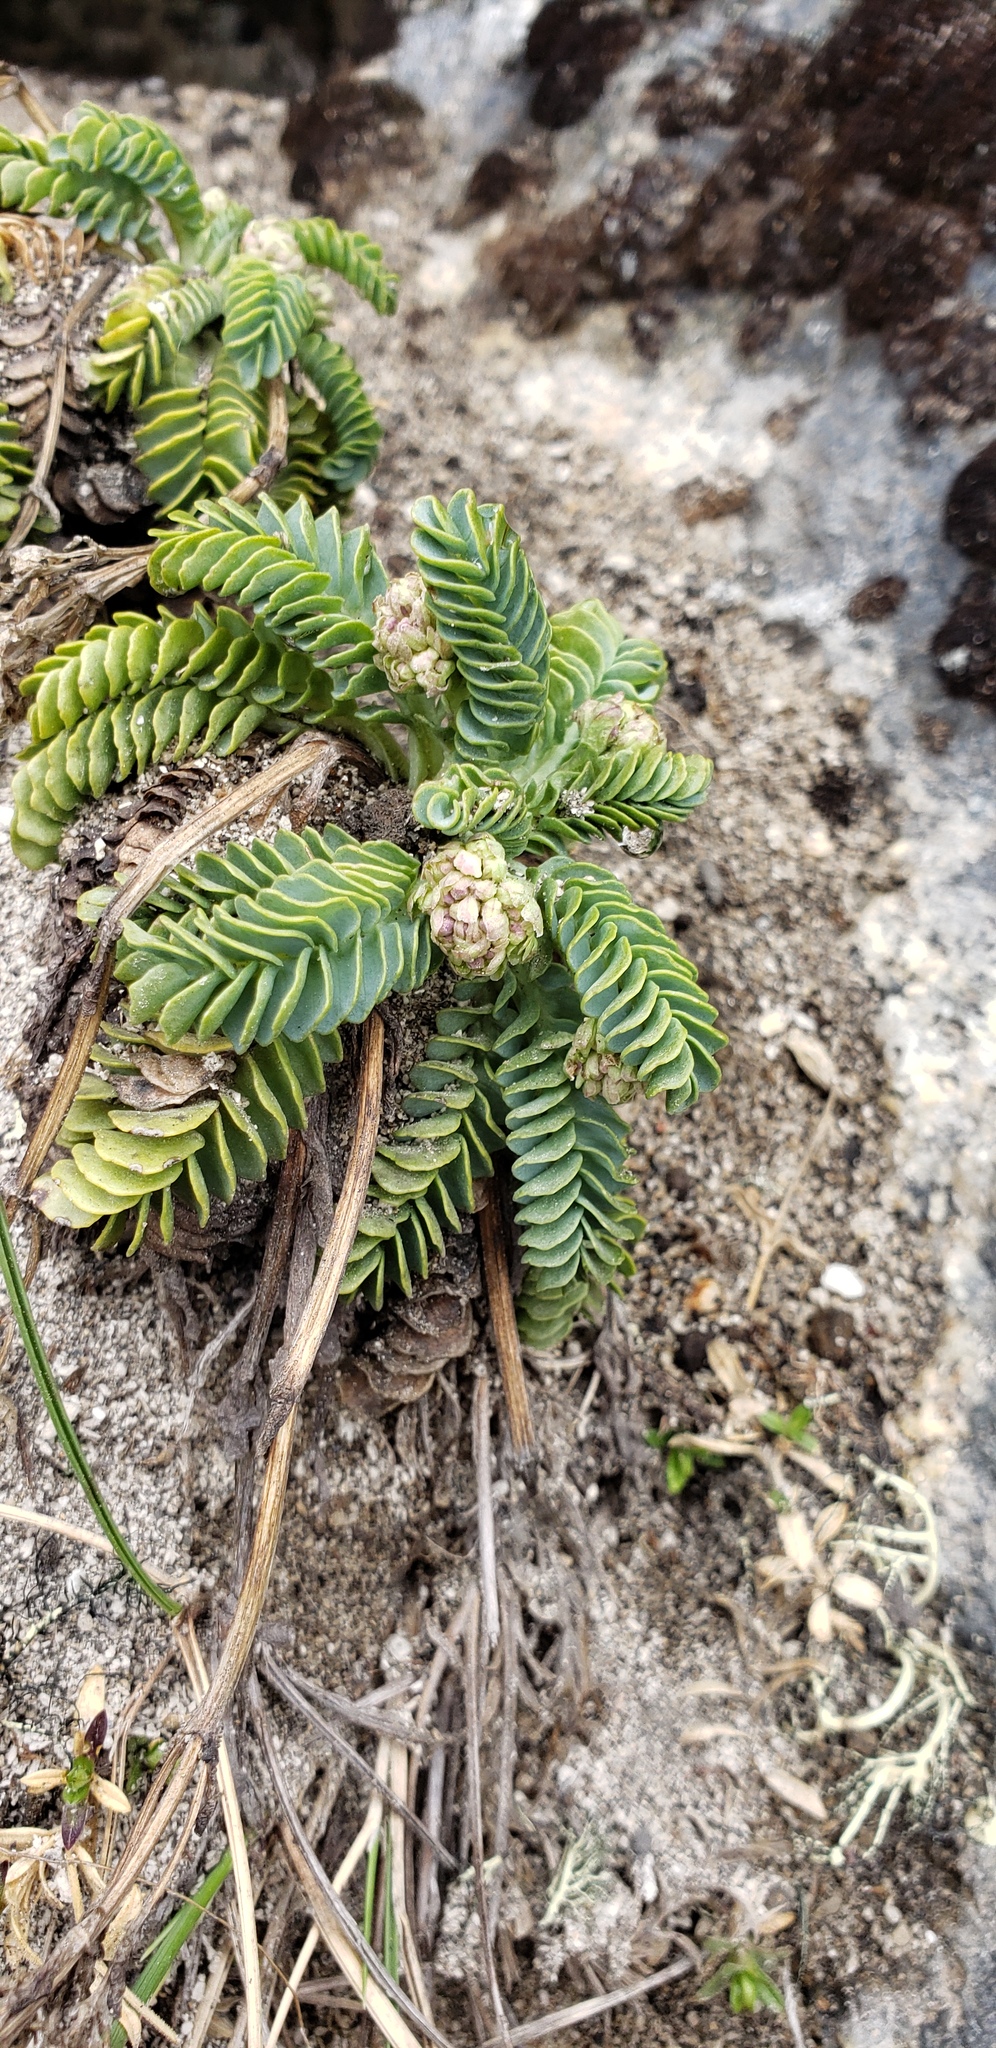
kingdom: Plantae
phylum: Tracheophyta
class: Magnoliopsida
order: Dipsacales
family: Caprifoliaceae
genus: Valeriana
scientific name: Valeriana philippiana
